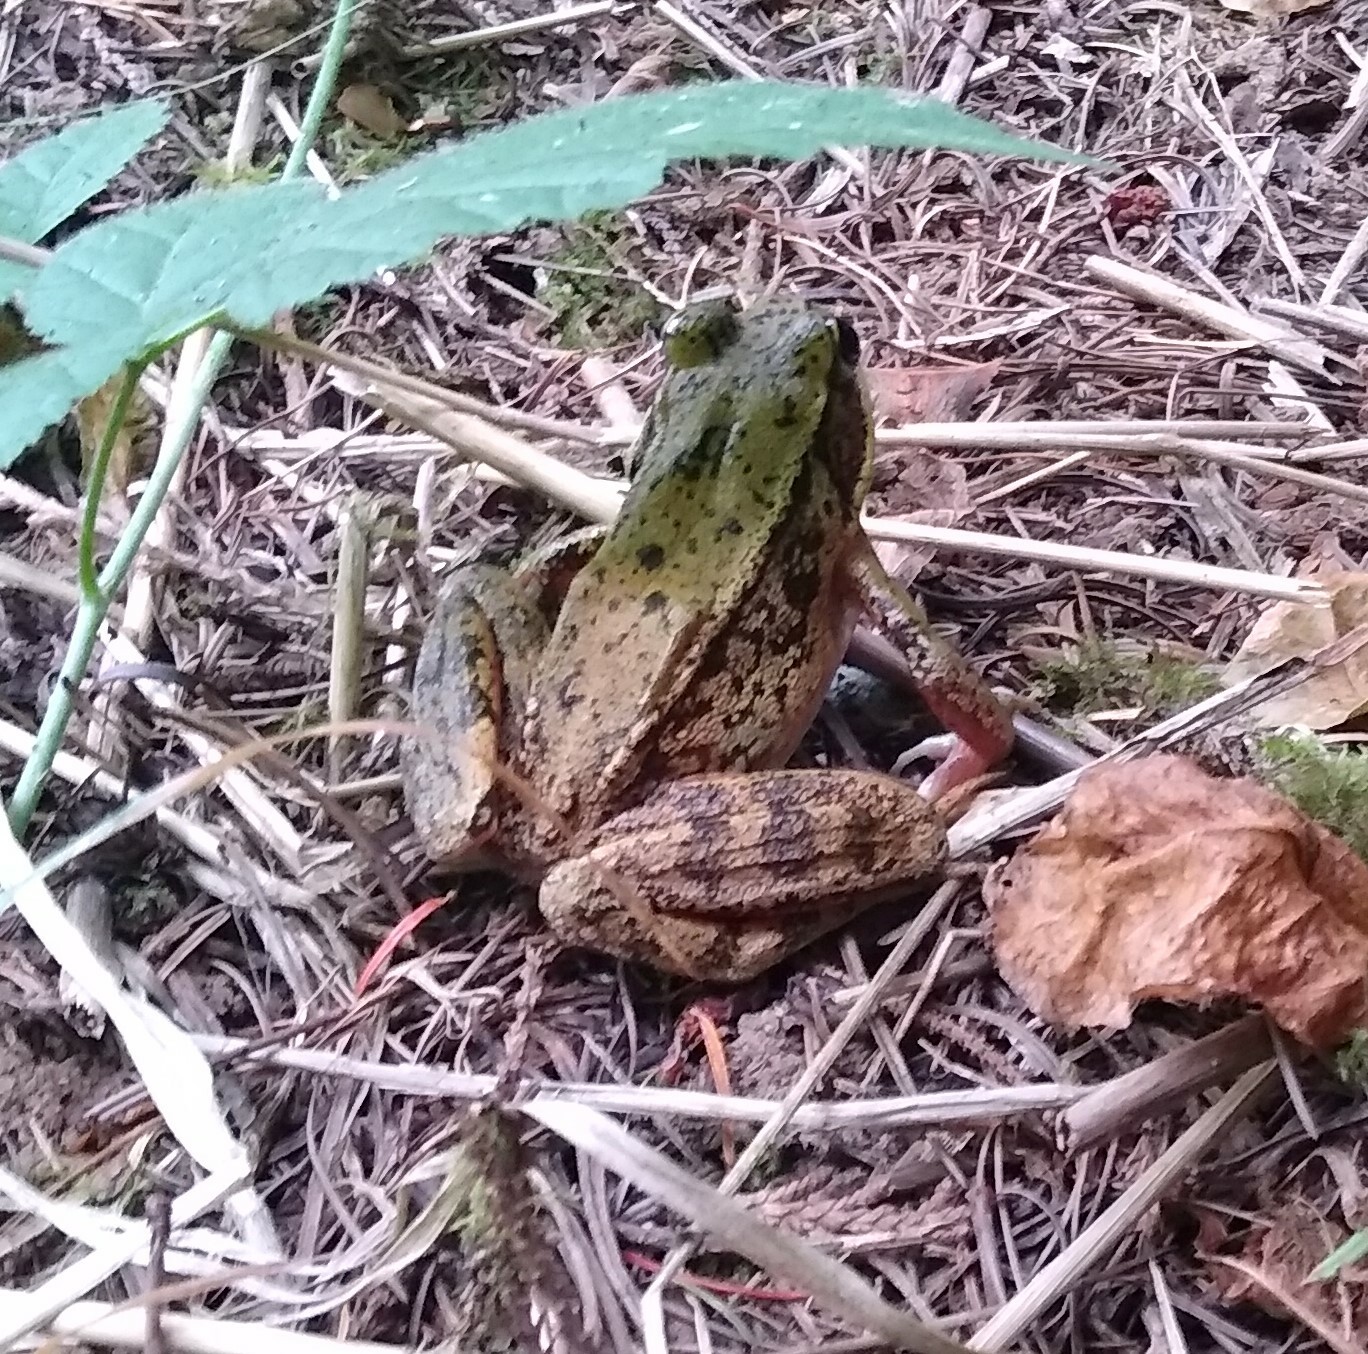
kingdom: Animalia
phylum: Chordata
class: Amphibia
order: Anura
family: Ranidae
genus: Rana
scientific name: Rana aurora
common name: Red-legged frog
